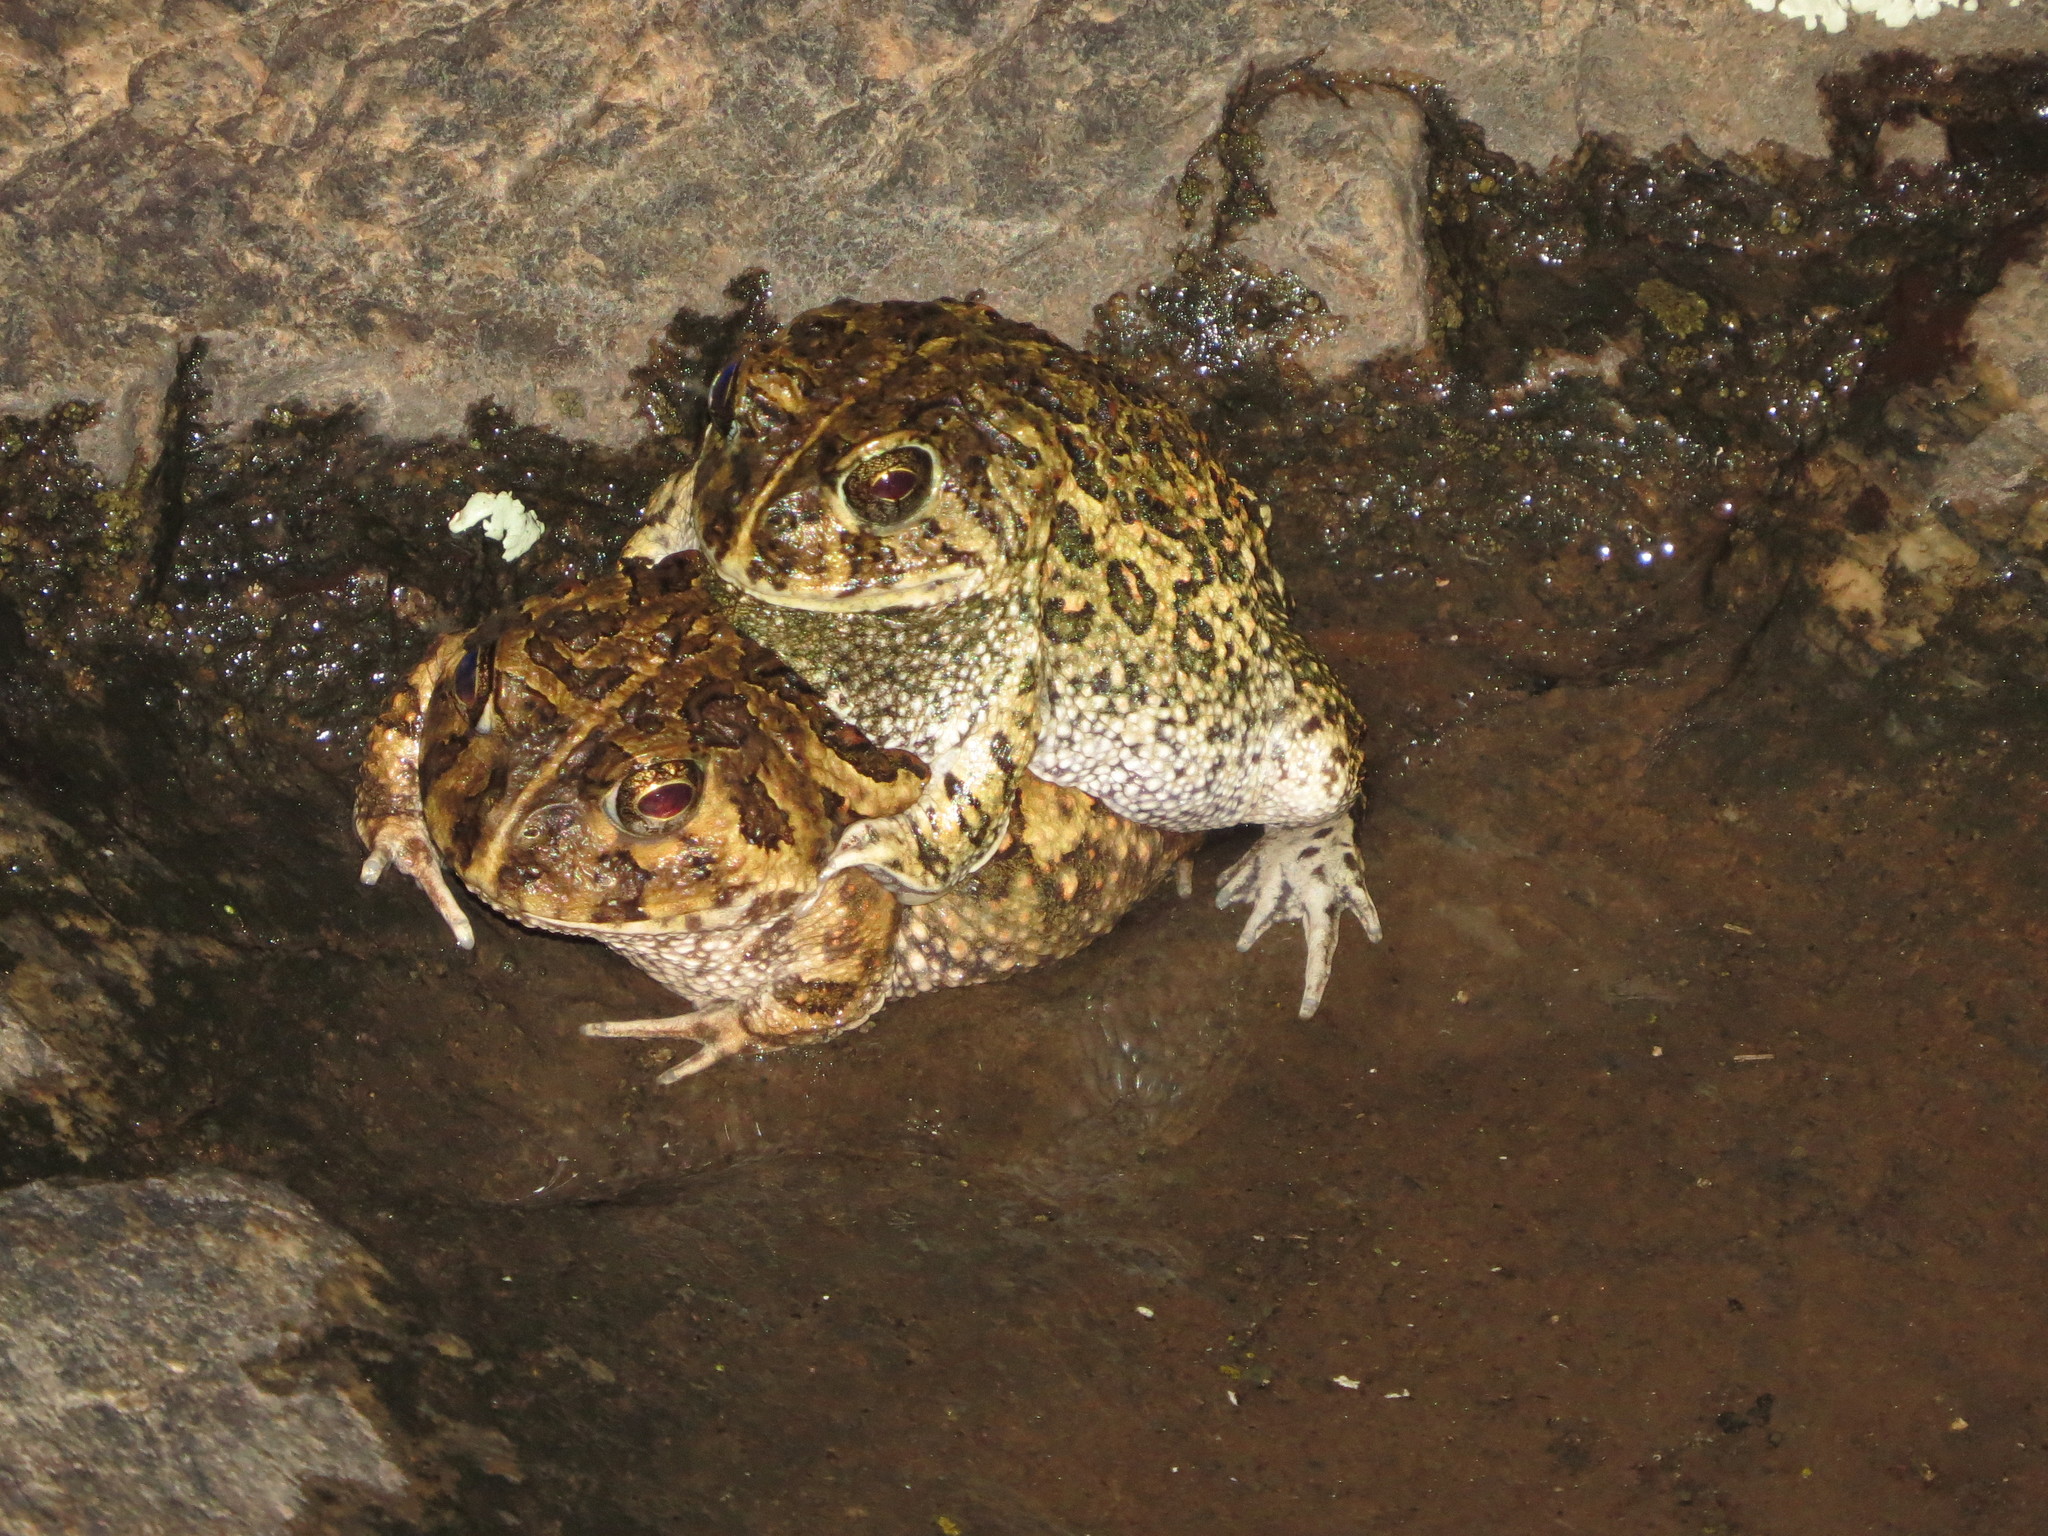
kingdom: Animalia
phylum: Chordata
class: Amphibia
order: Anura
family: Odontophrynidae
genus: Odontophrynus
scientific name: Odontophrynus
